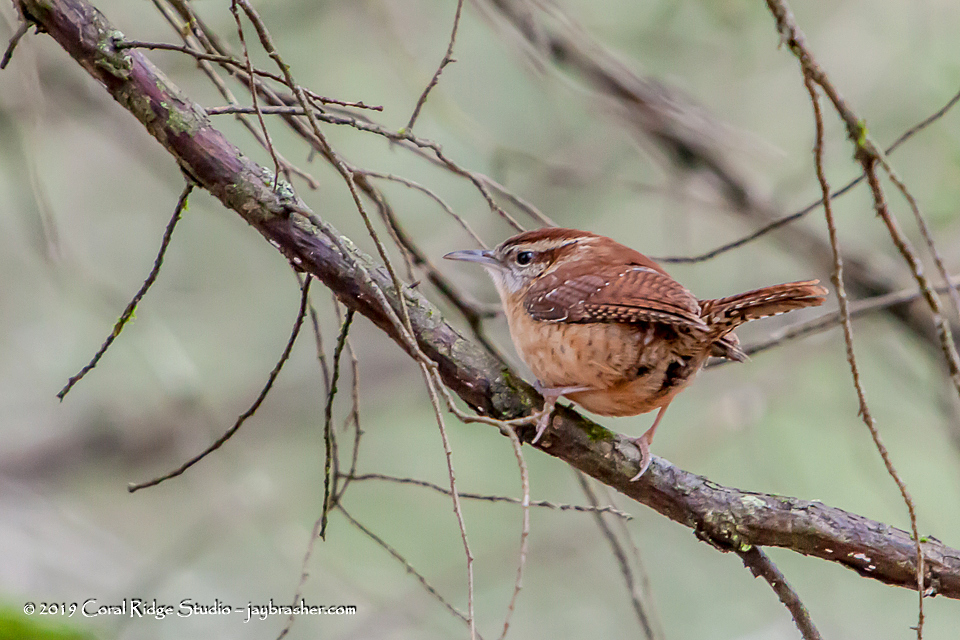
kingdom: Animalia
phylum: Chordata
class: Aves
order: Passeriformes
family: Troglodytidae
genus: Thryothorus
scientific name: Thryothorus ludovicianus
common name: Carolina wren
